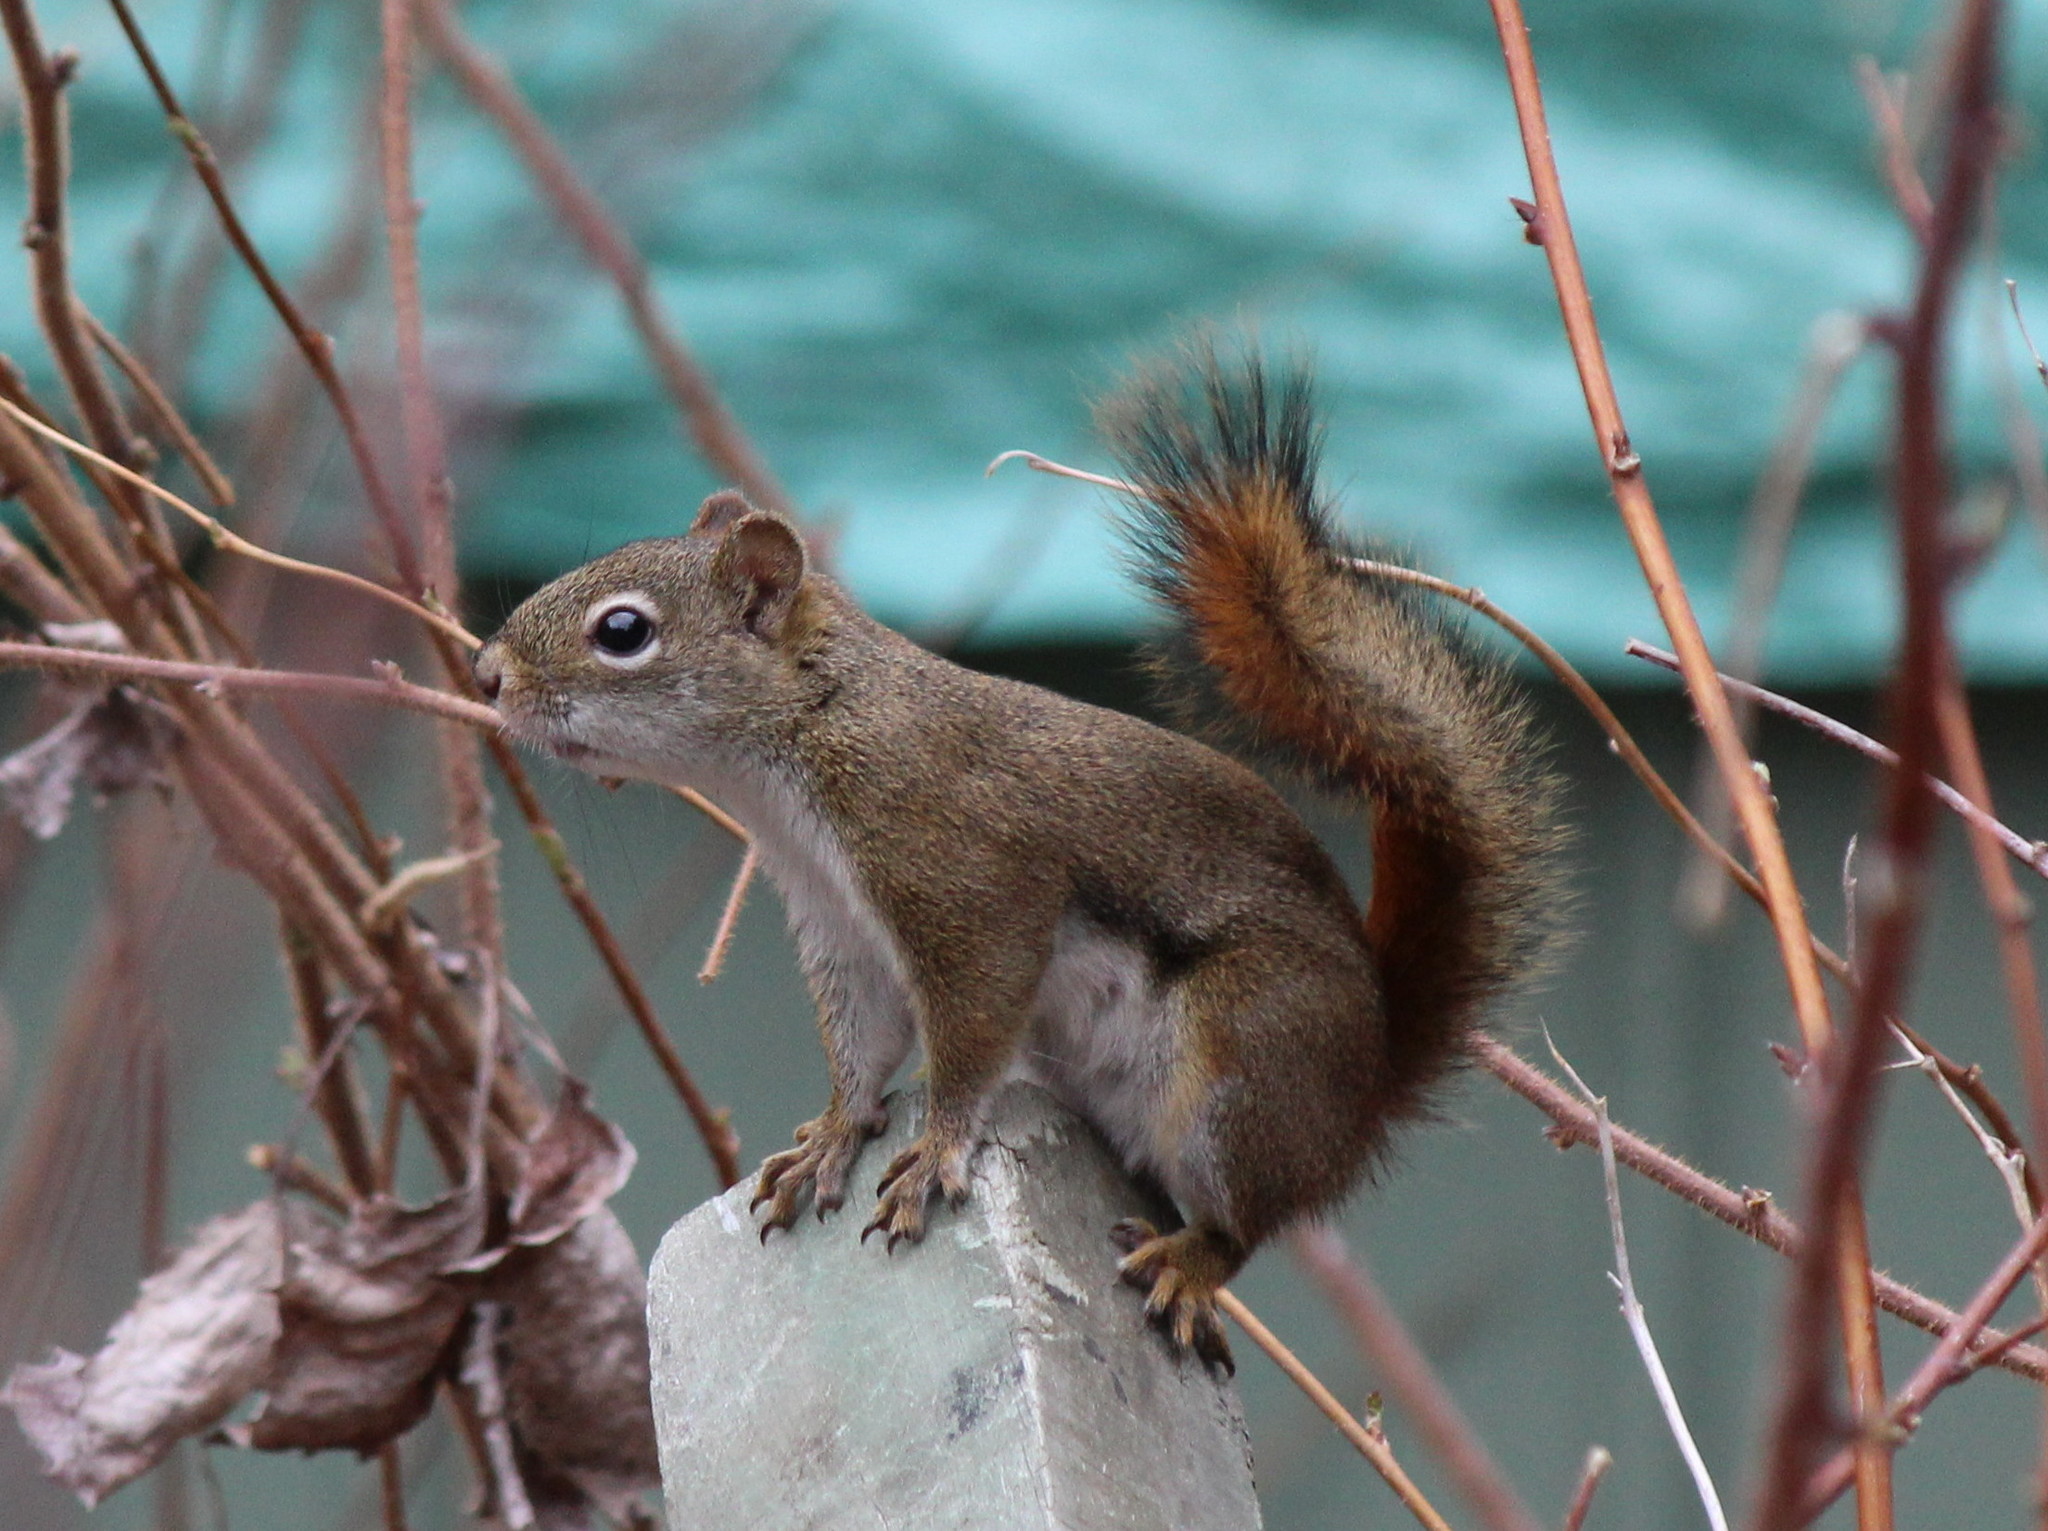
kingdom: Animalia
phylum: Chordata
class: Mammalia
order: Rodentia
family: Sciuridae
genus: Tamiasciurus
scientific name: Tamiasciurus hudsonicus
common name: Red squirrel
